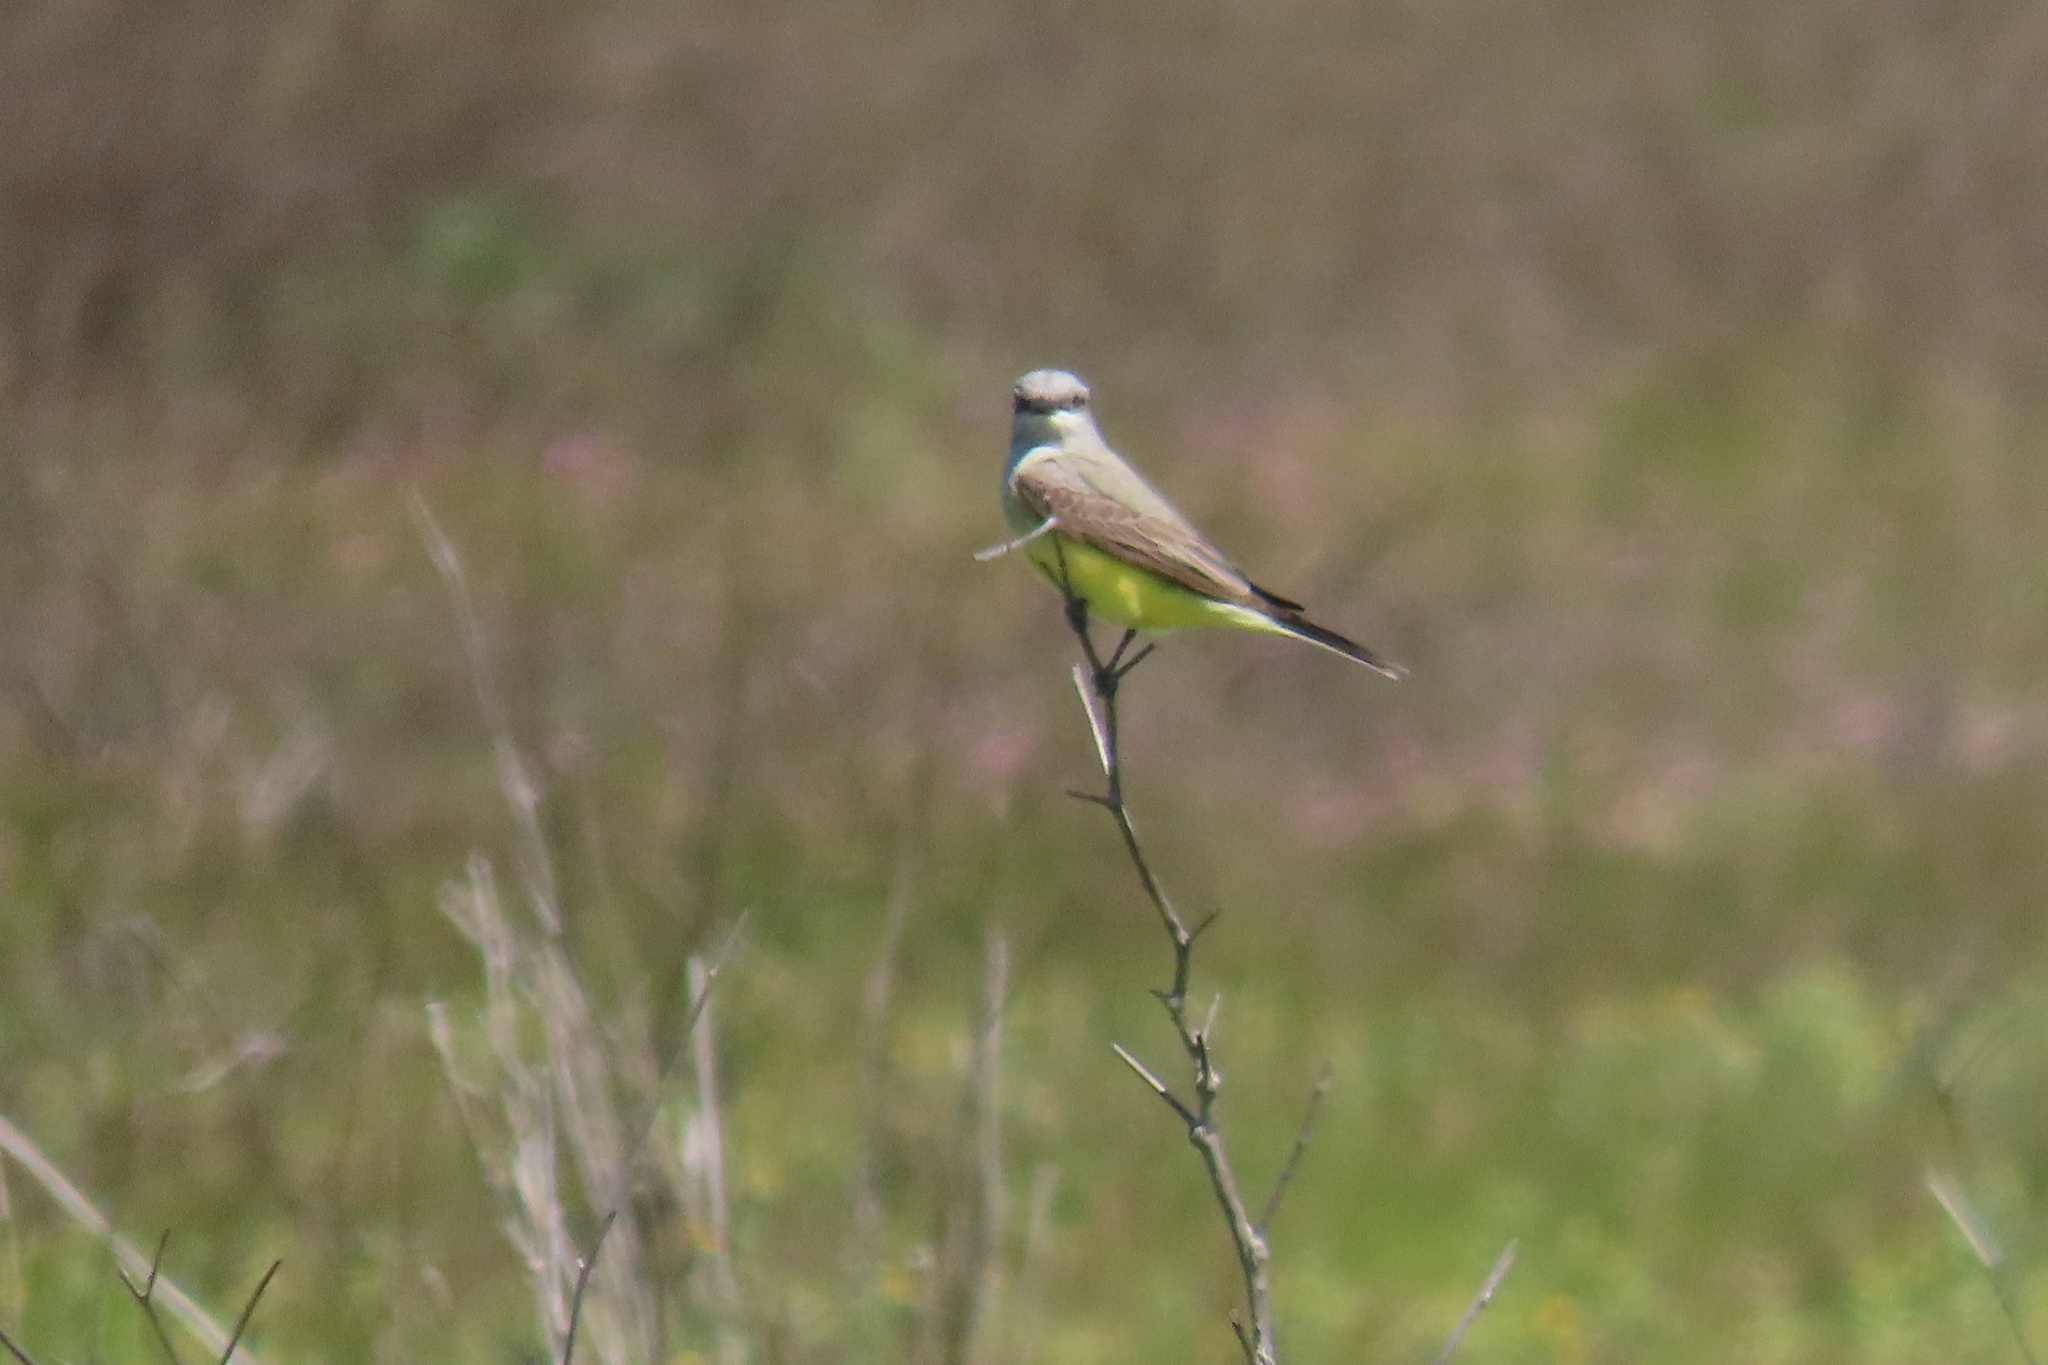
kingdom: Animalia
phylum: Chordata
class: Aves
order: Passeriformes
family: Tyrannidae
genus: Tyrannus
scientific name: Tyrannus verticalis
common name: Western kingbird
